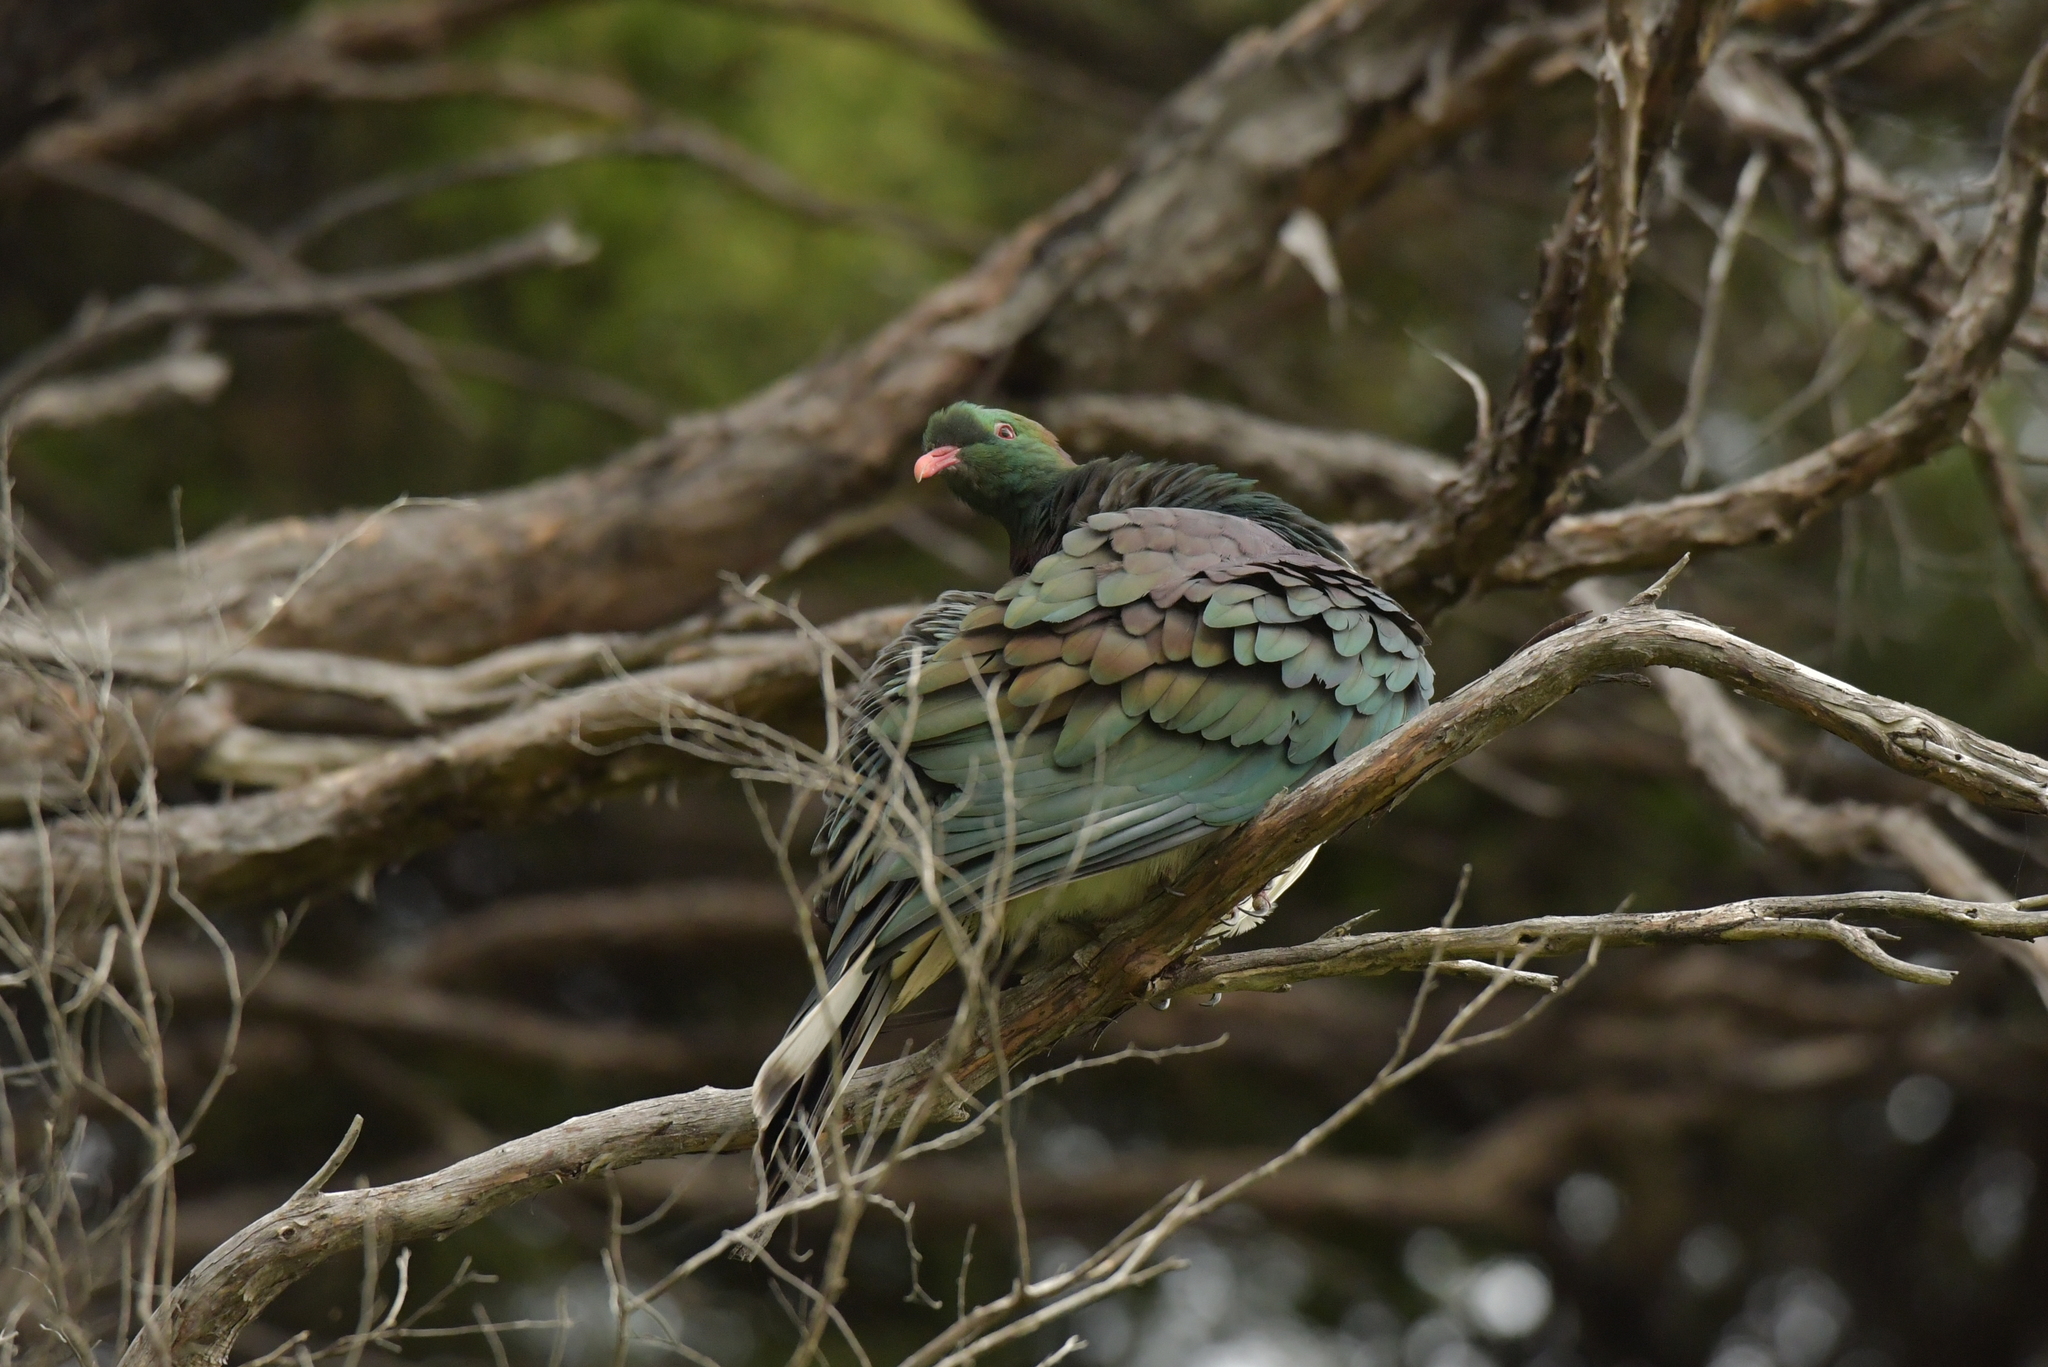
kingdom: Animalia
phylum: Chordata
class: Aves
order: Columbiformes
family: Columbidae
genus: Hemiphaga
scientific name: Hemiphaga novaeseelandiae
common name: New zealand pigeon
